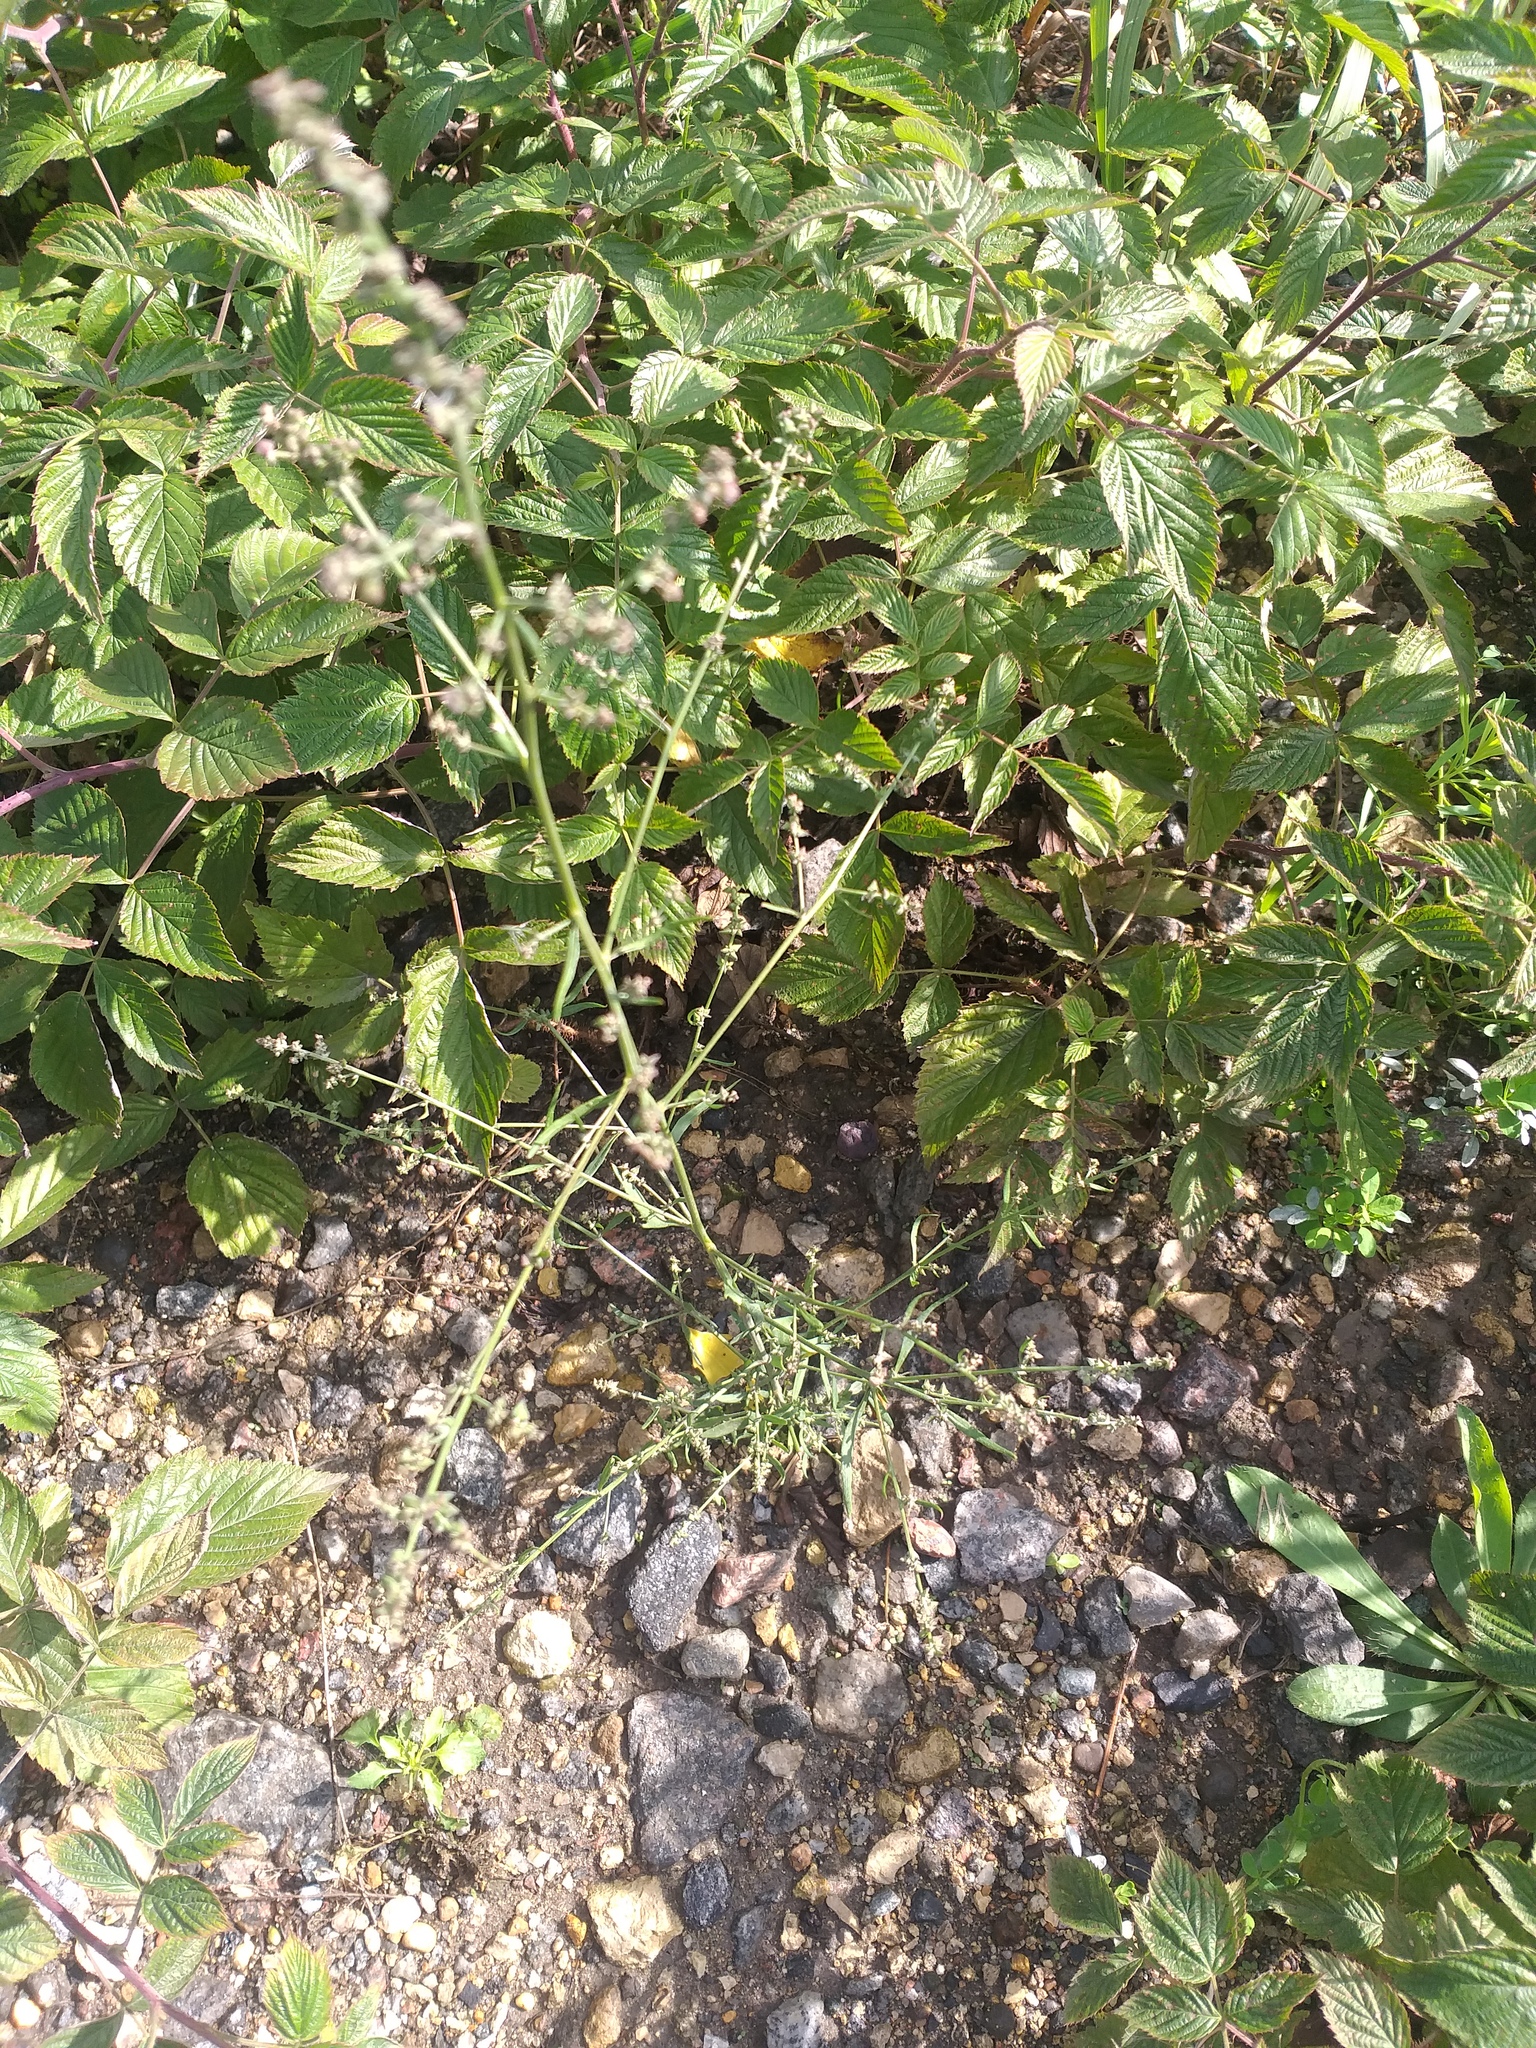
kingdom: Plantae
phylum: Tracheophyta
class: Magnoliopsida
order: Caryophyllales
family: Amaranthaceae
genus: Atriplex
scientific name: Atriplex patula
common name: Common orache
